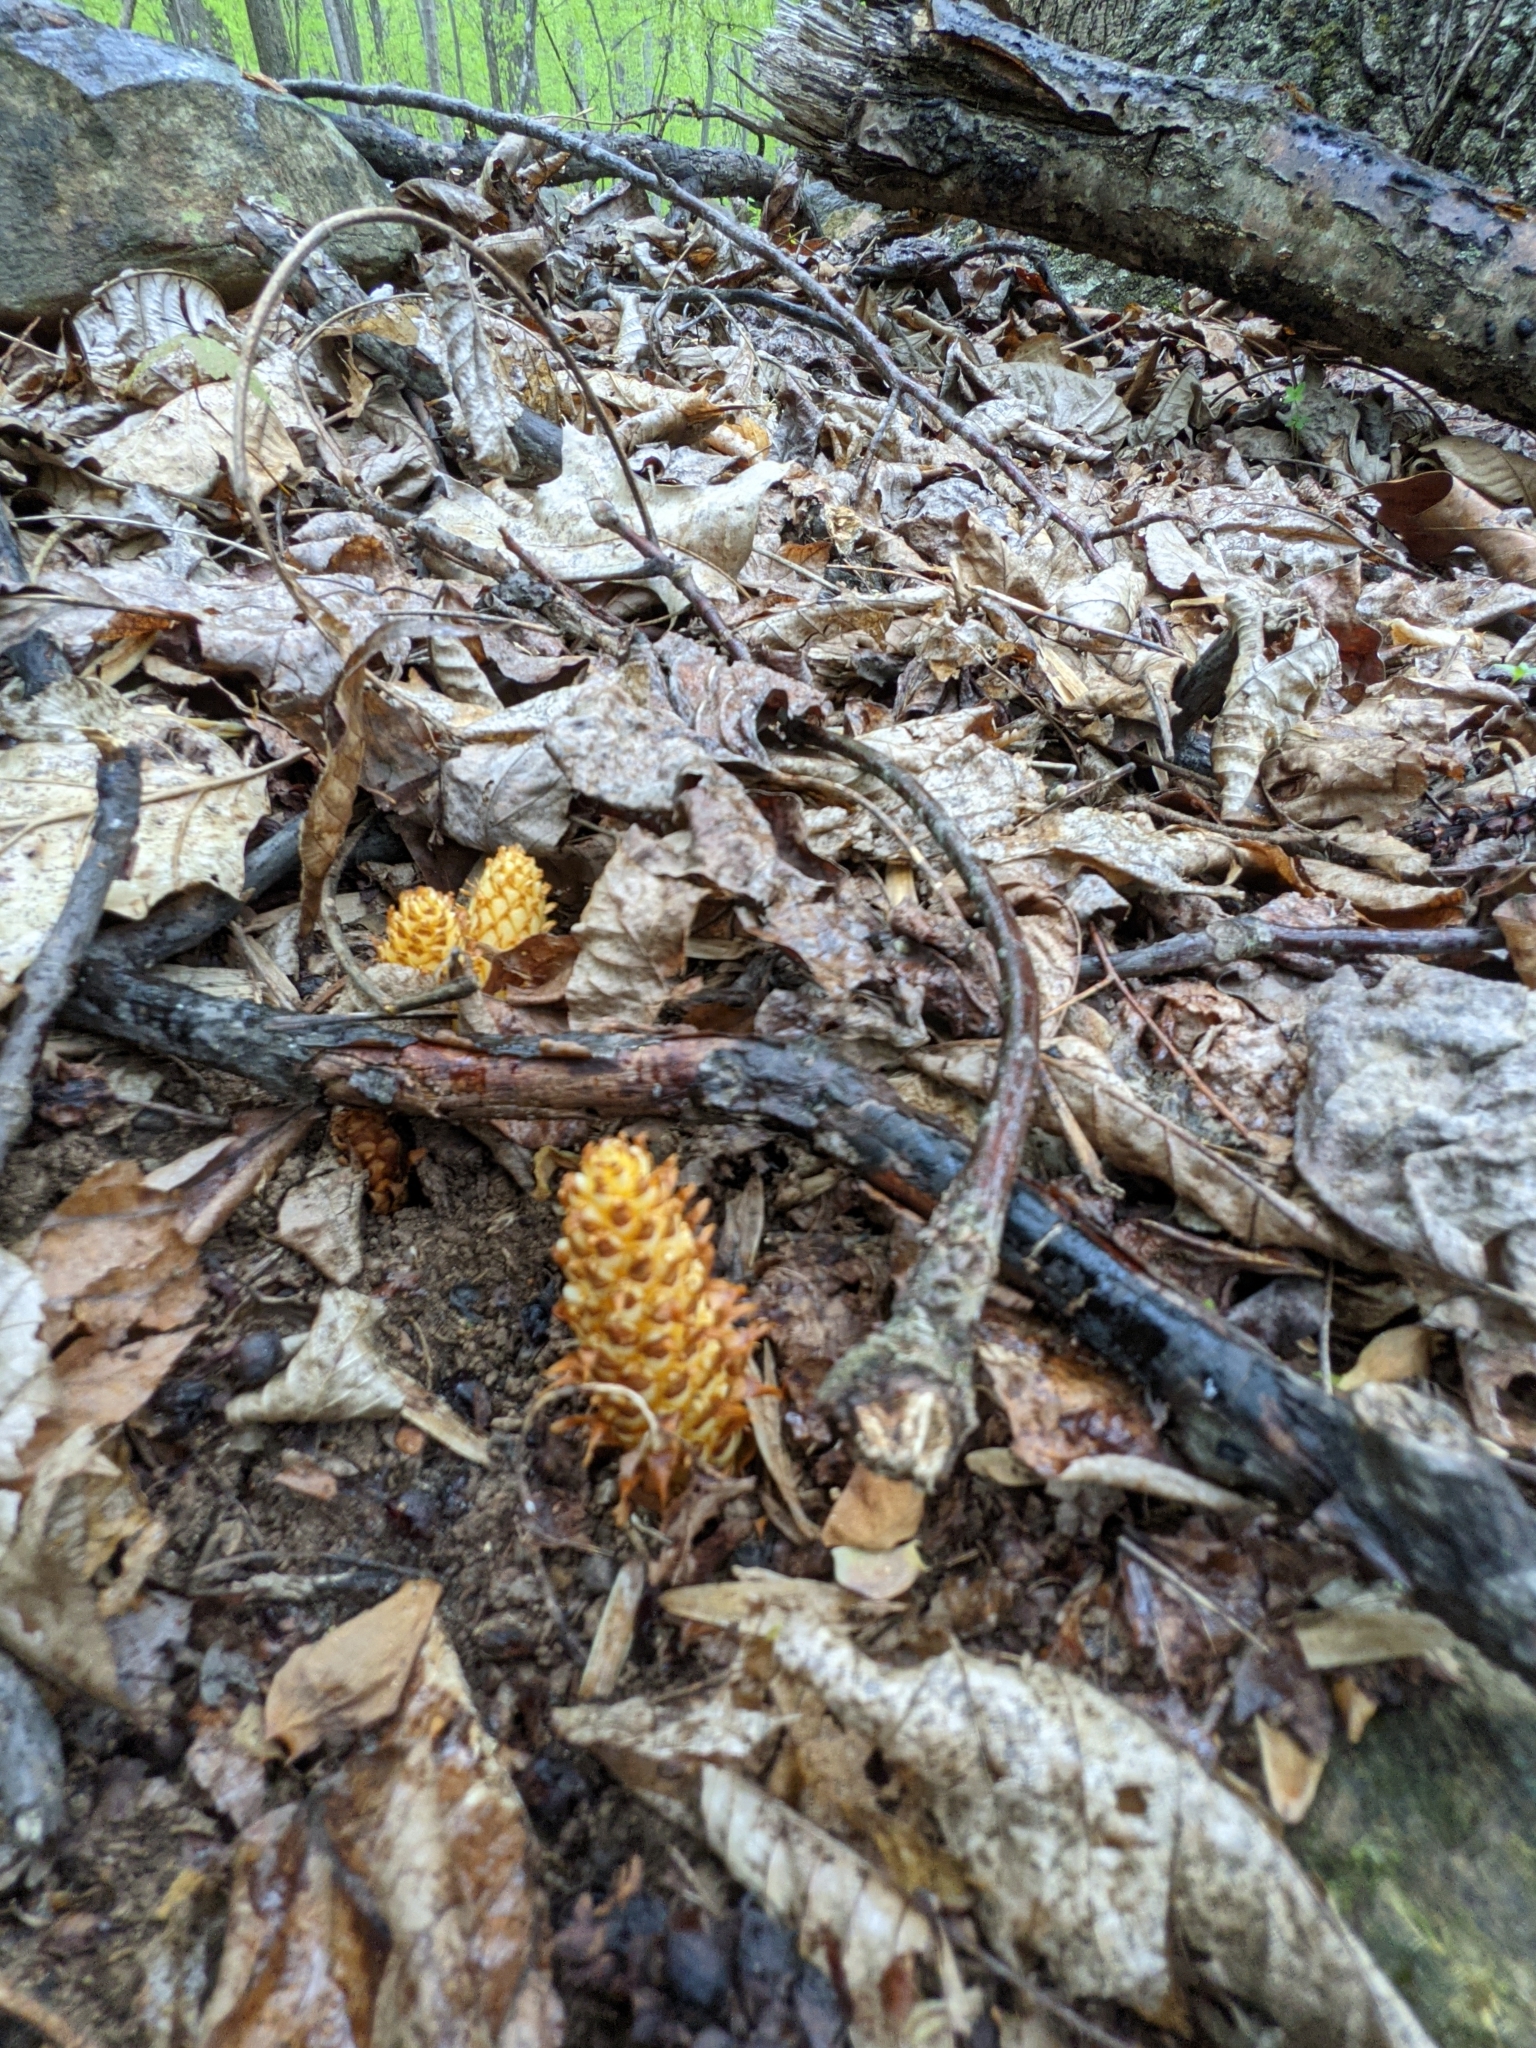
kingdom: Plantae
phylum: Tracheophyta
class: Magnoliopsida
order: Lamiales
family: Orobanchaceae
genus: Conopholis
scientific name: Conopholis americana
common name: American cancer-root
